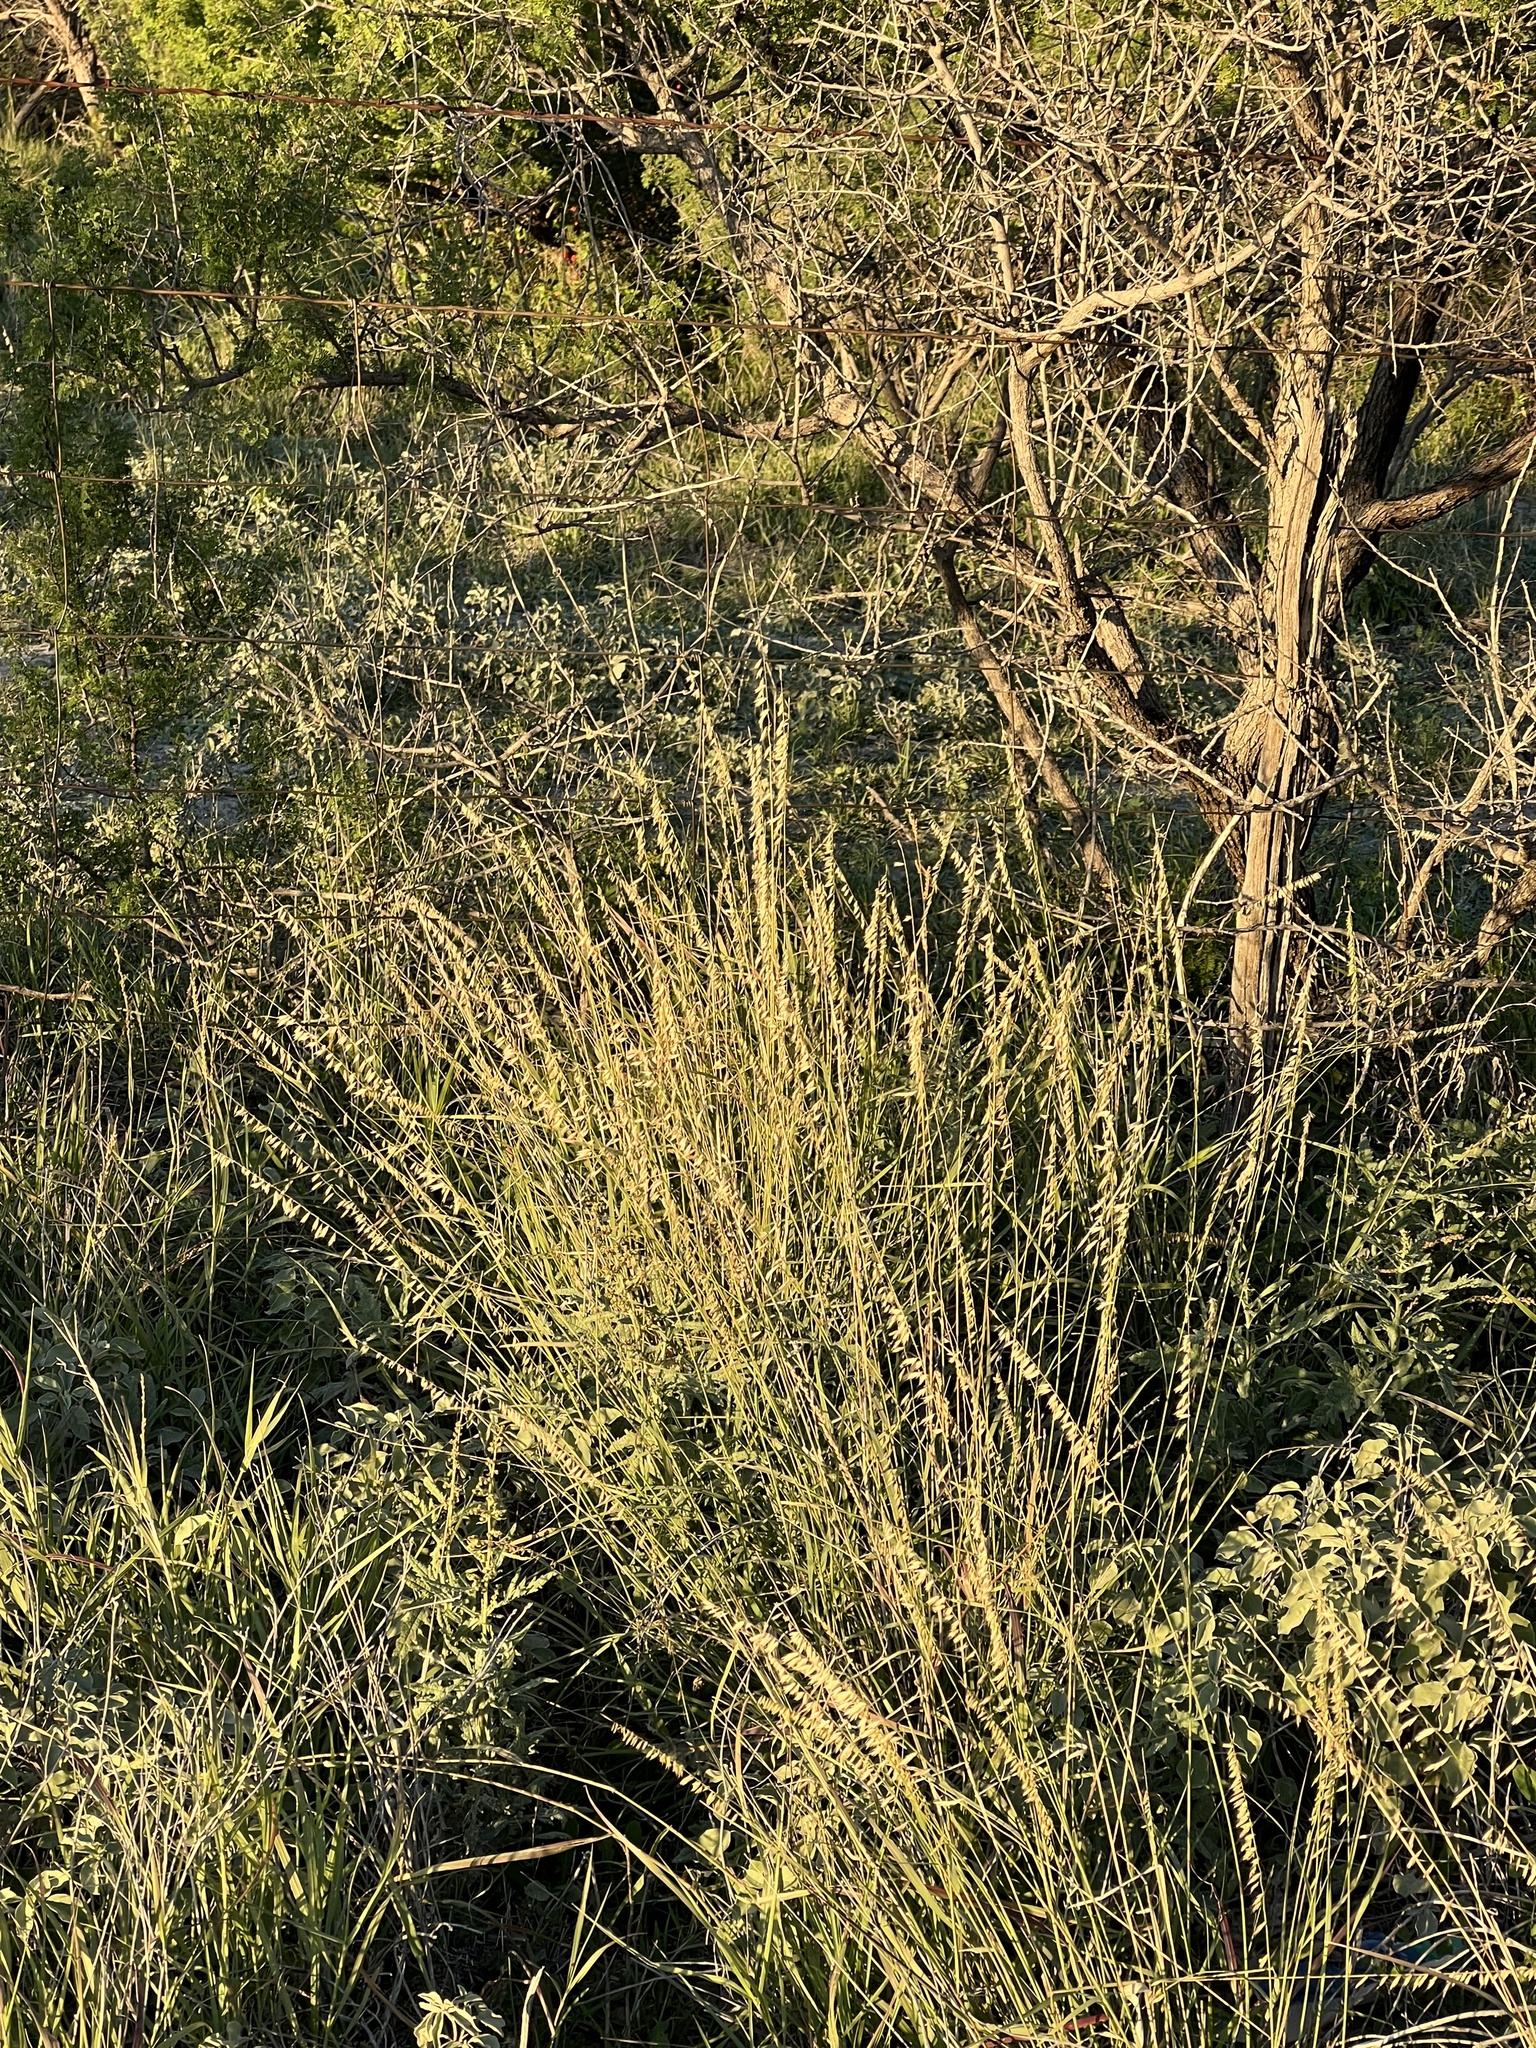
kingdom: Plantae
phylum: Tracheophyta
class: Liliopsida
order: Poales
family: Poaceae
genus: Bouteloua
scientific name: Bouteloua curtipendula
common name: Side-oats grama
